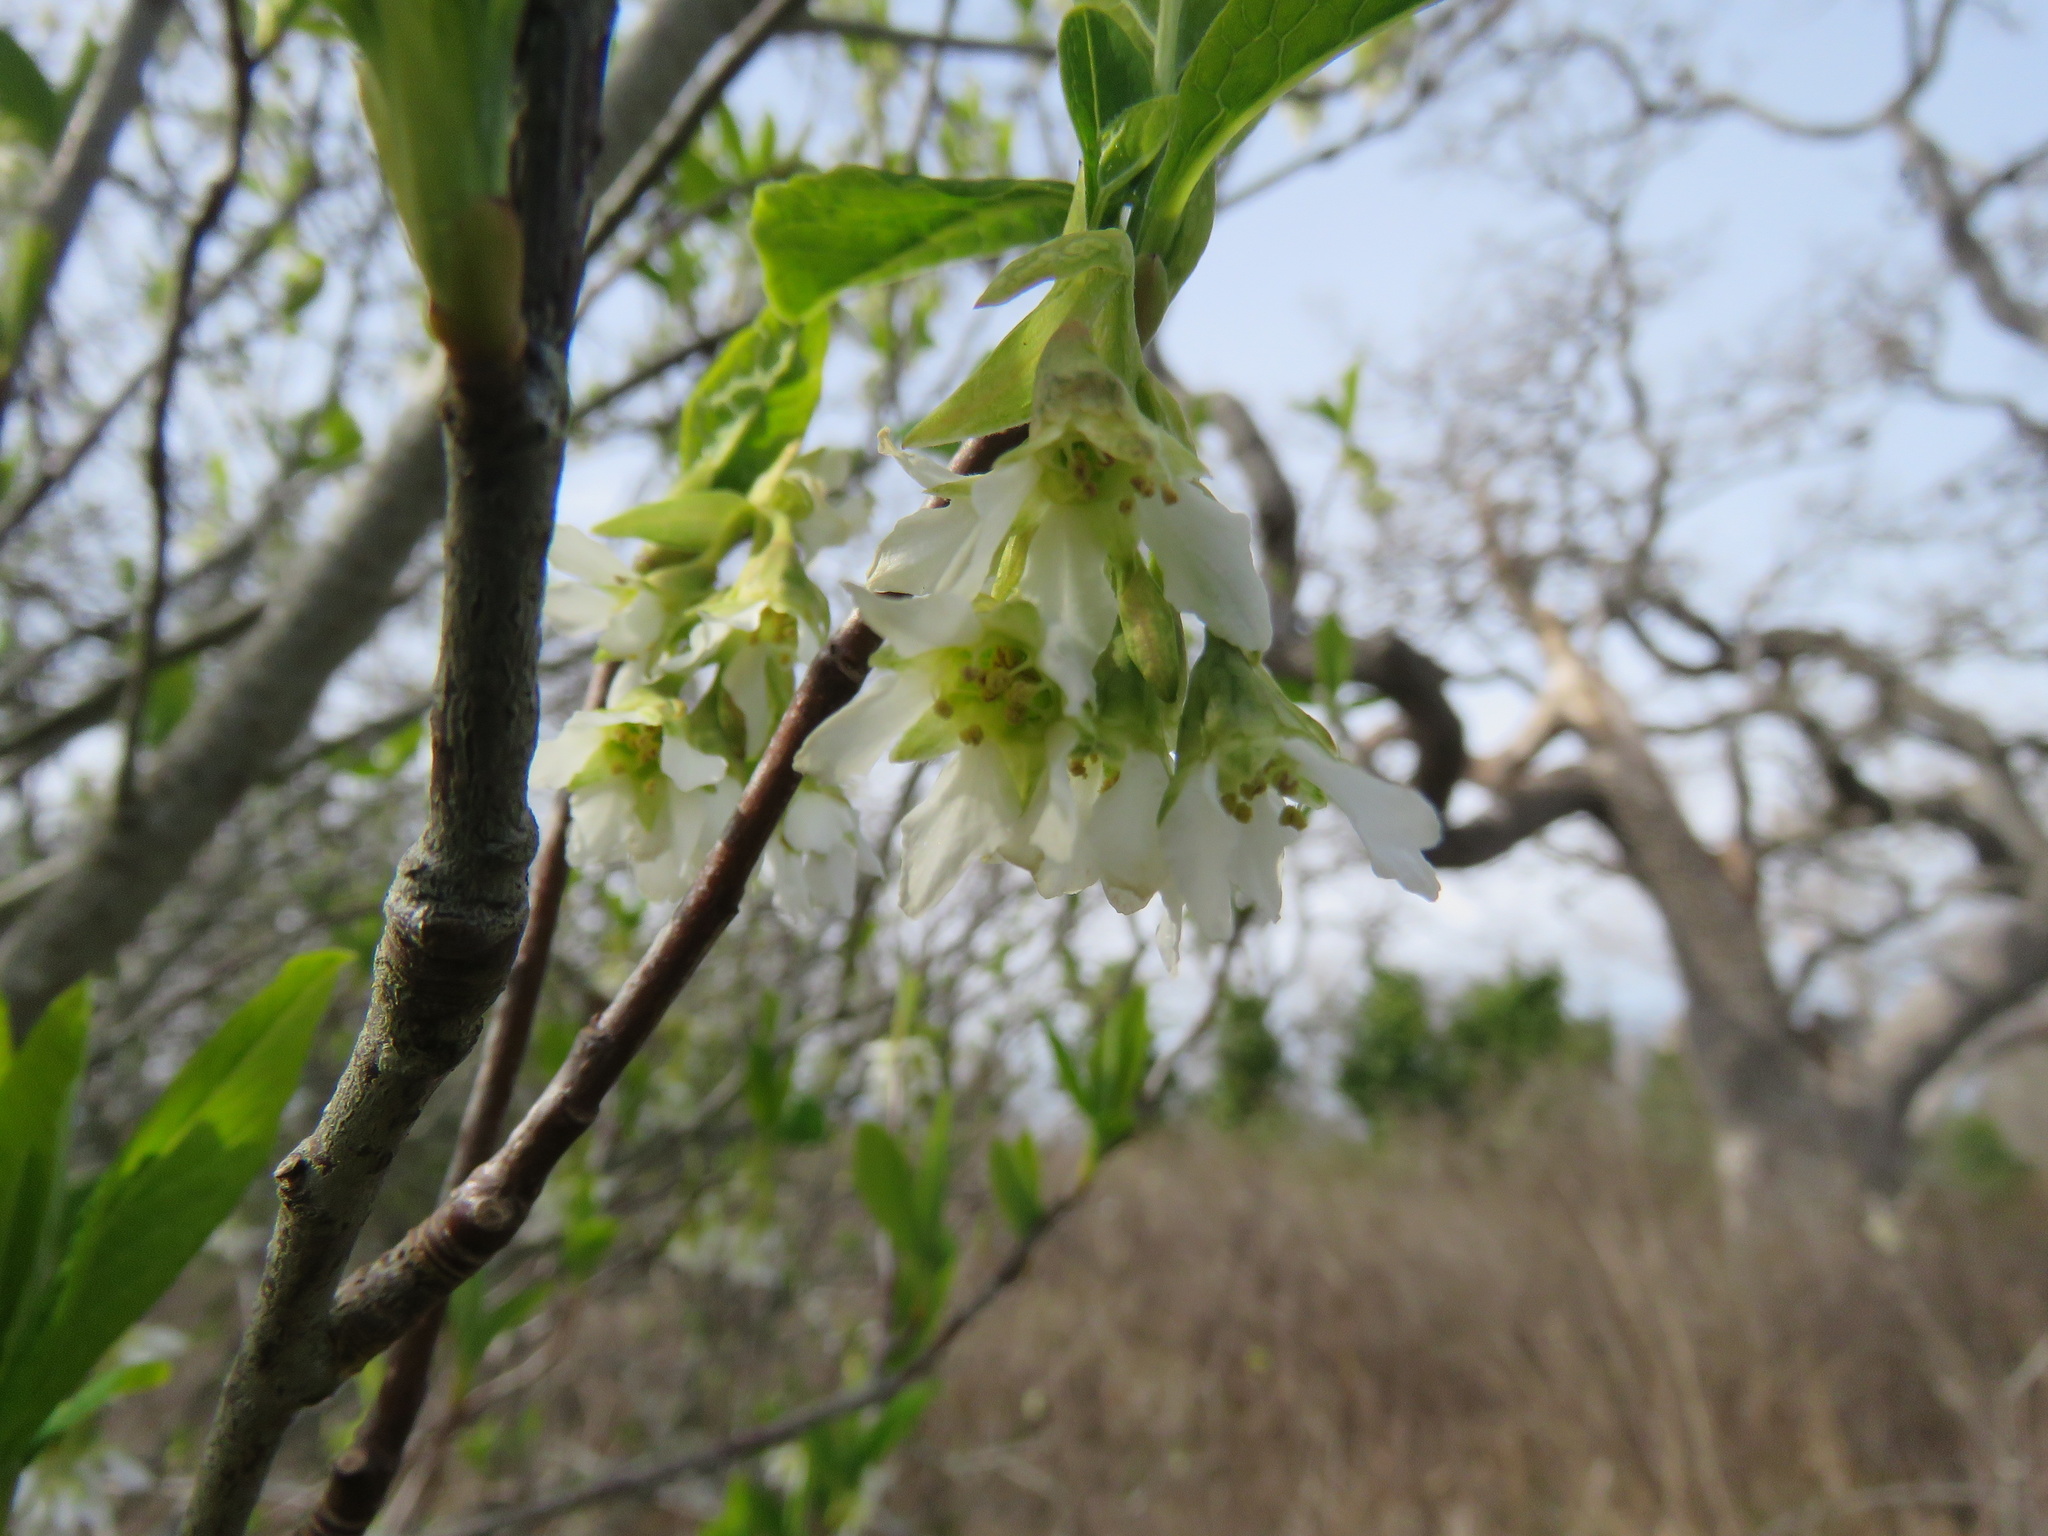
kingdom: Plantae
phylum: Tracheophyta
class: Magnoliopsida
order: Rosales
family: Rosaceae
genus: Oemleria
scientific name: Oemleria cerasiformis
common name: Osoberry
